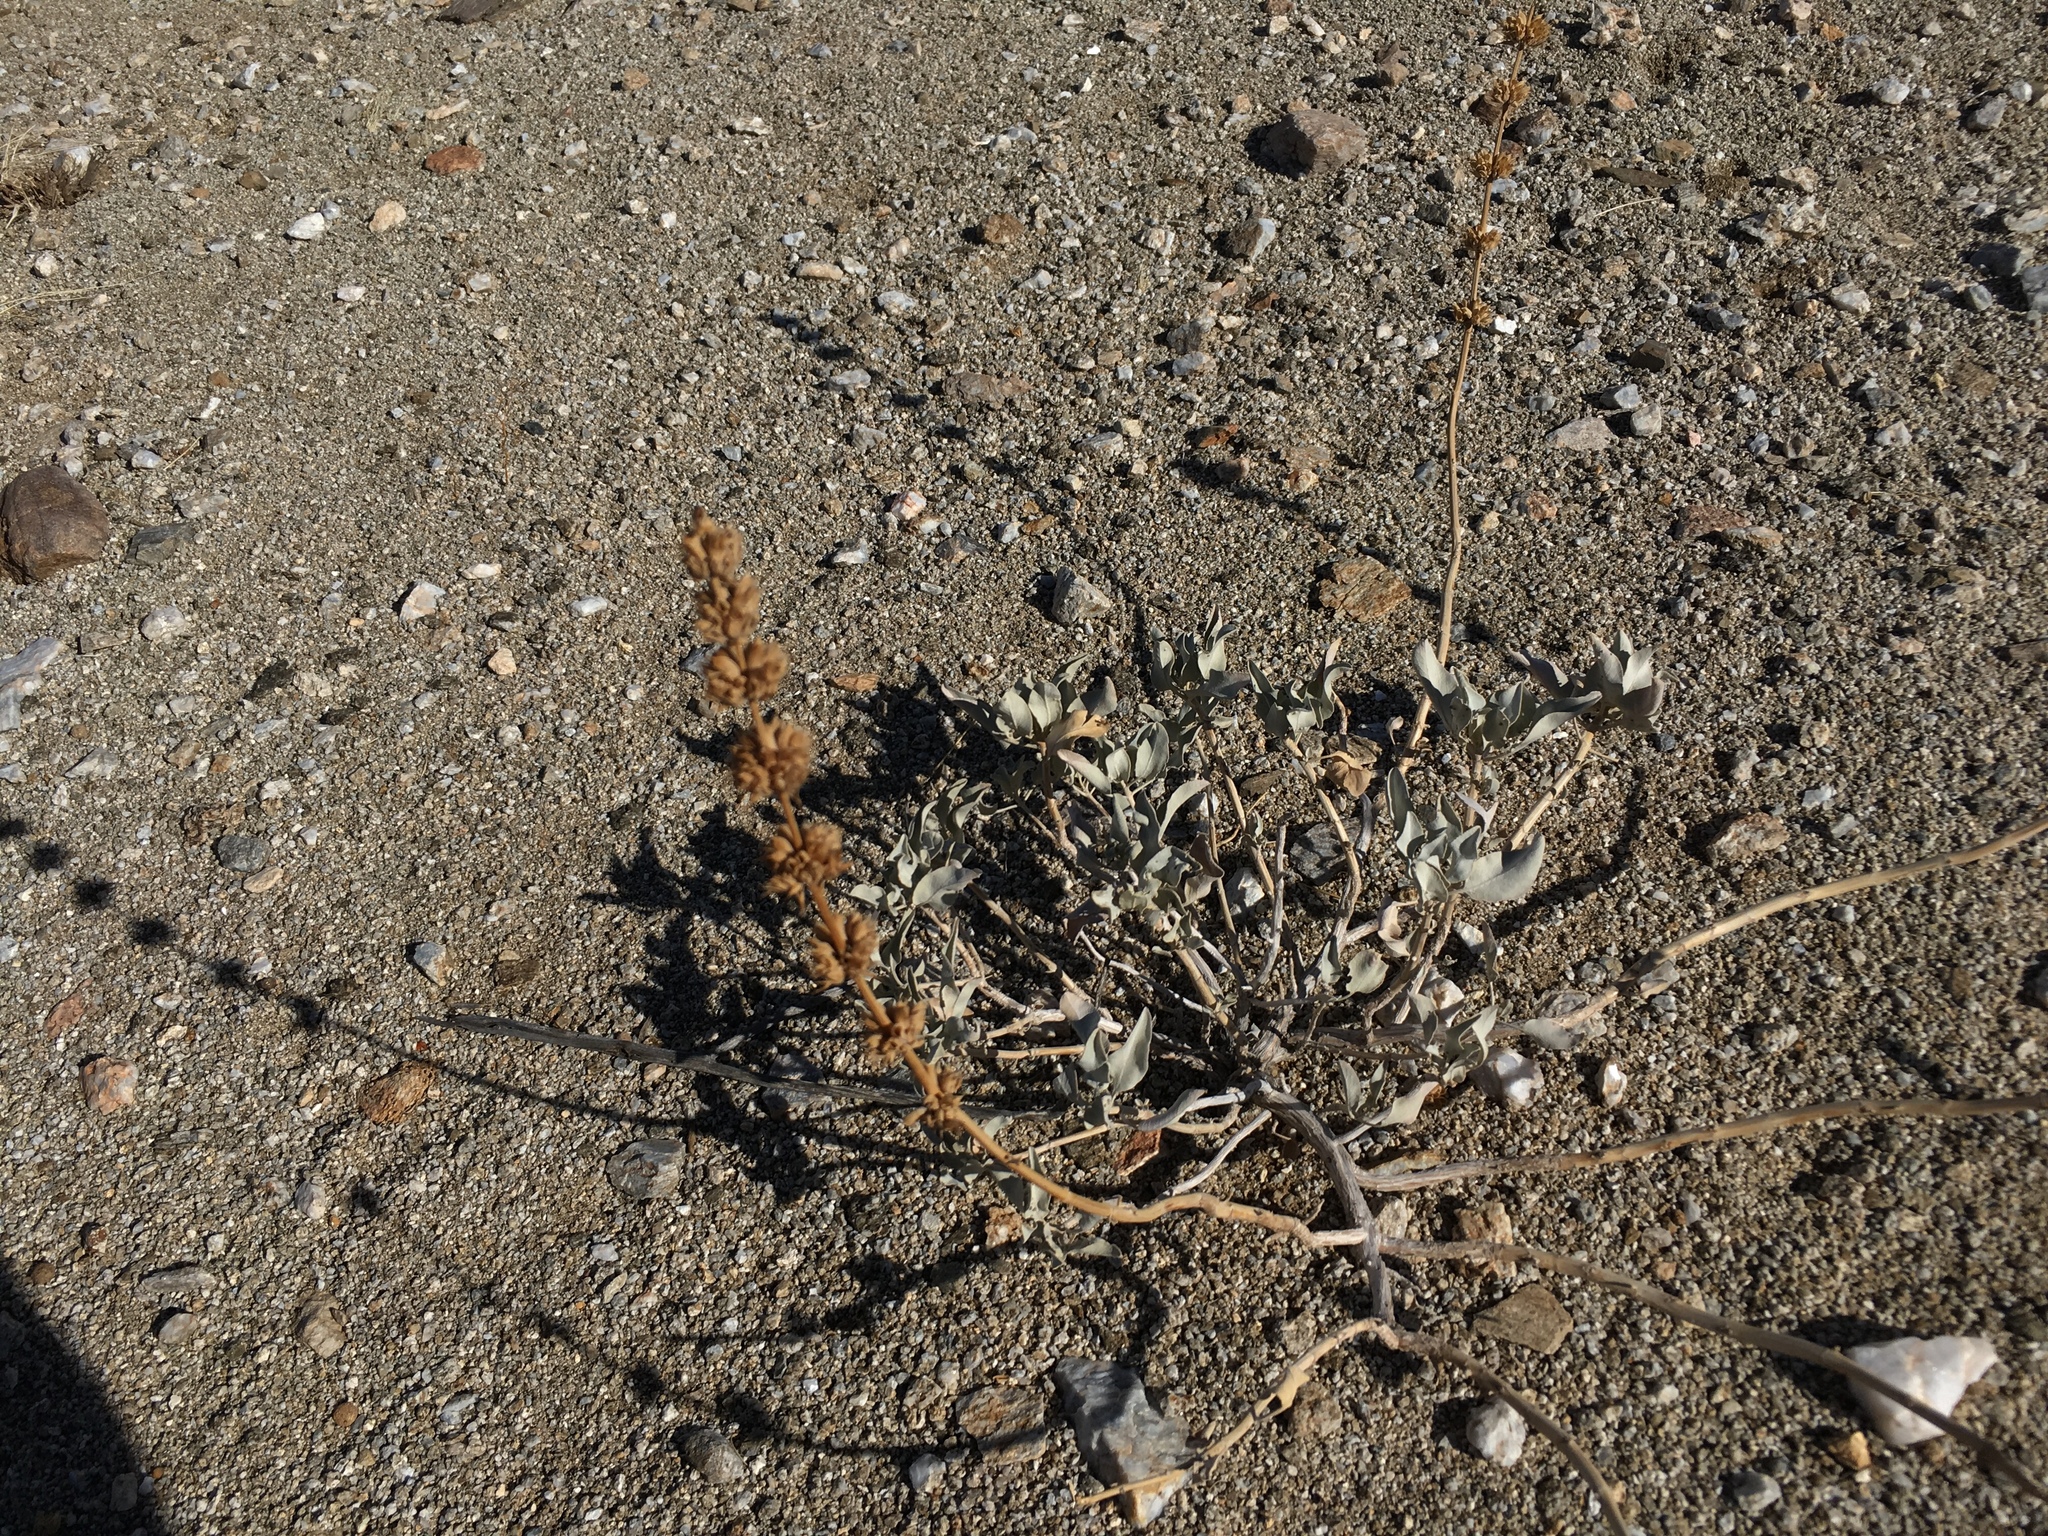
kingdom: Plantae
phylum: Tracheophyta
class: Magnoliopsida
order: Lamiales
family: Lamiaceae
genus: Salvia
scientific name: Salvia vaseyi
